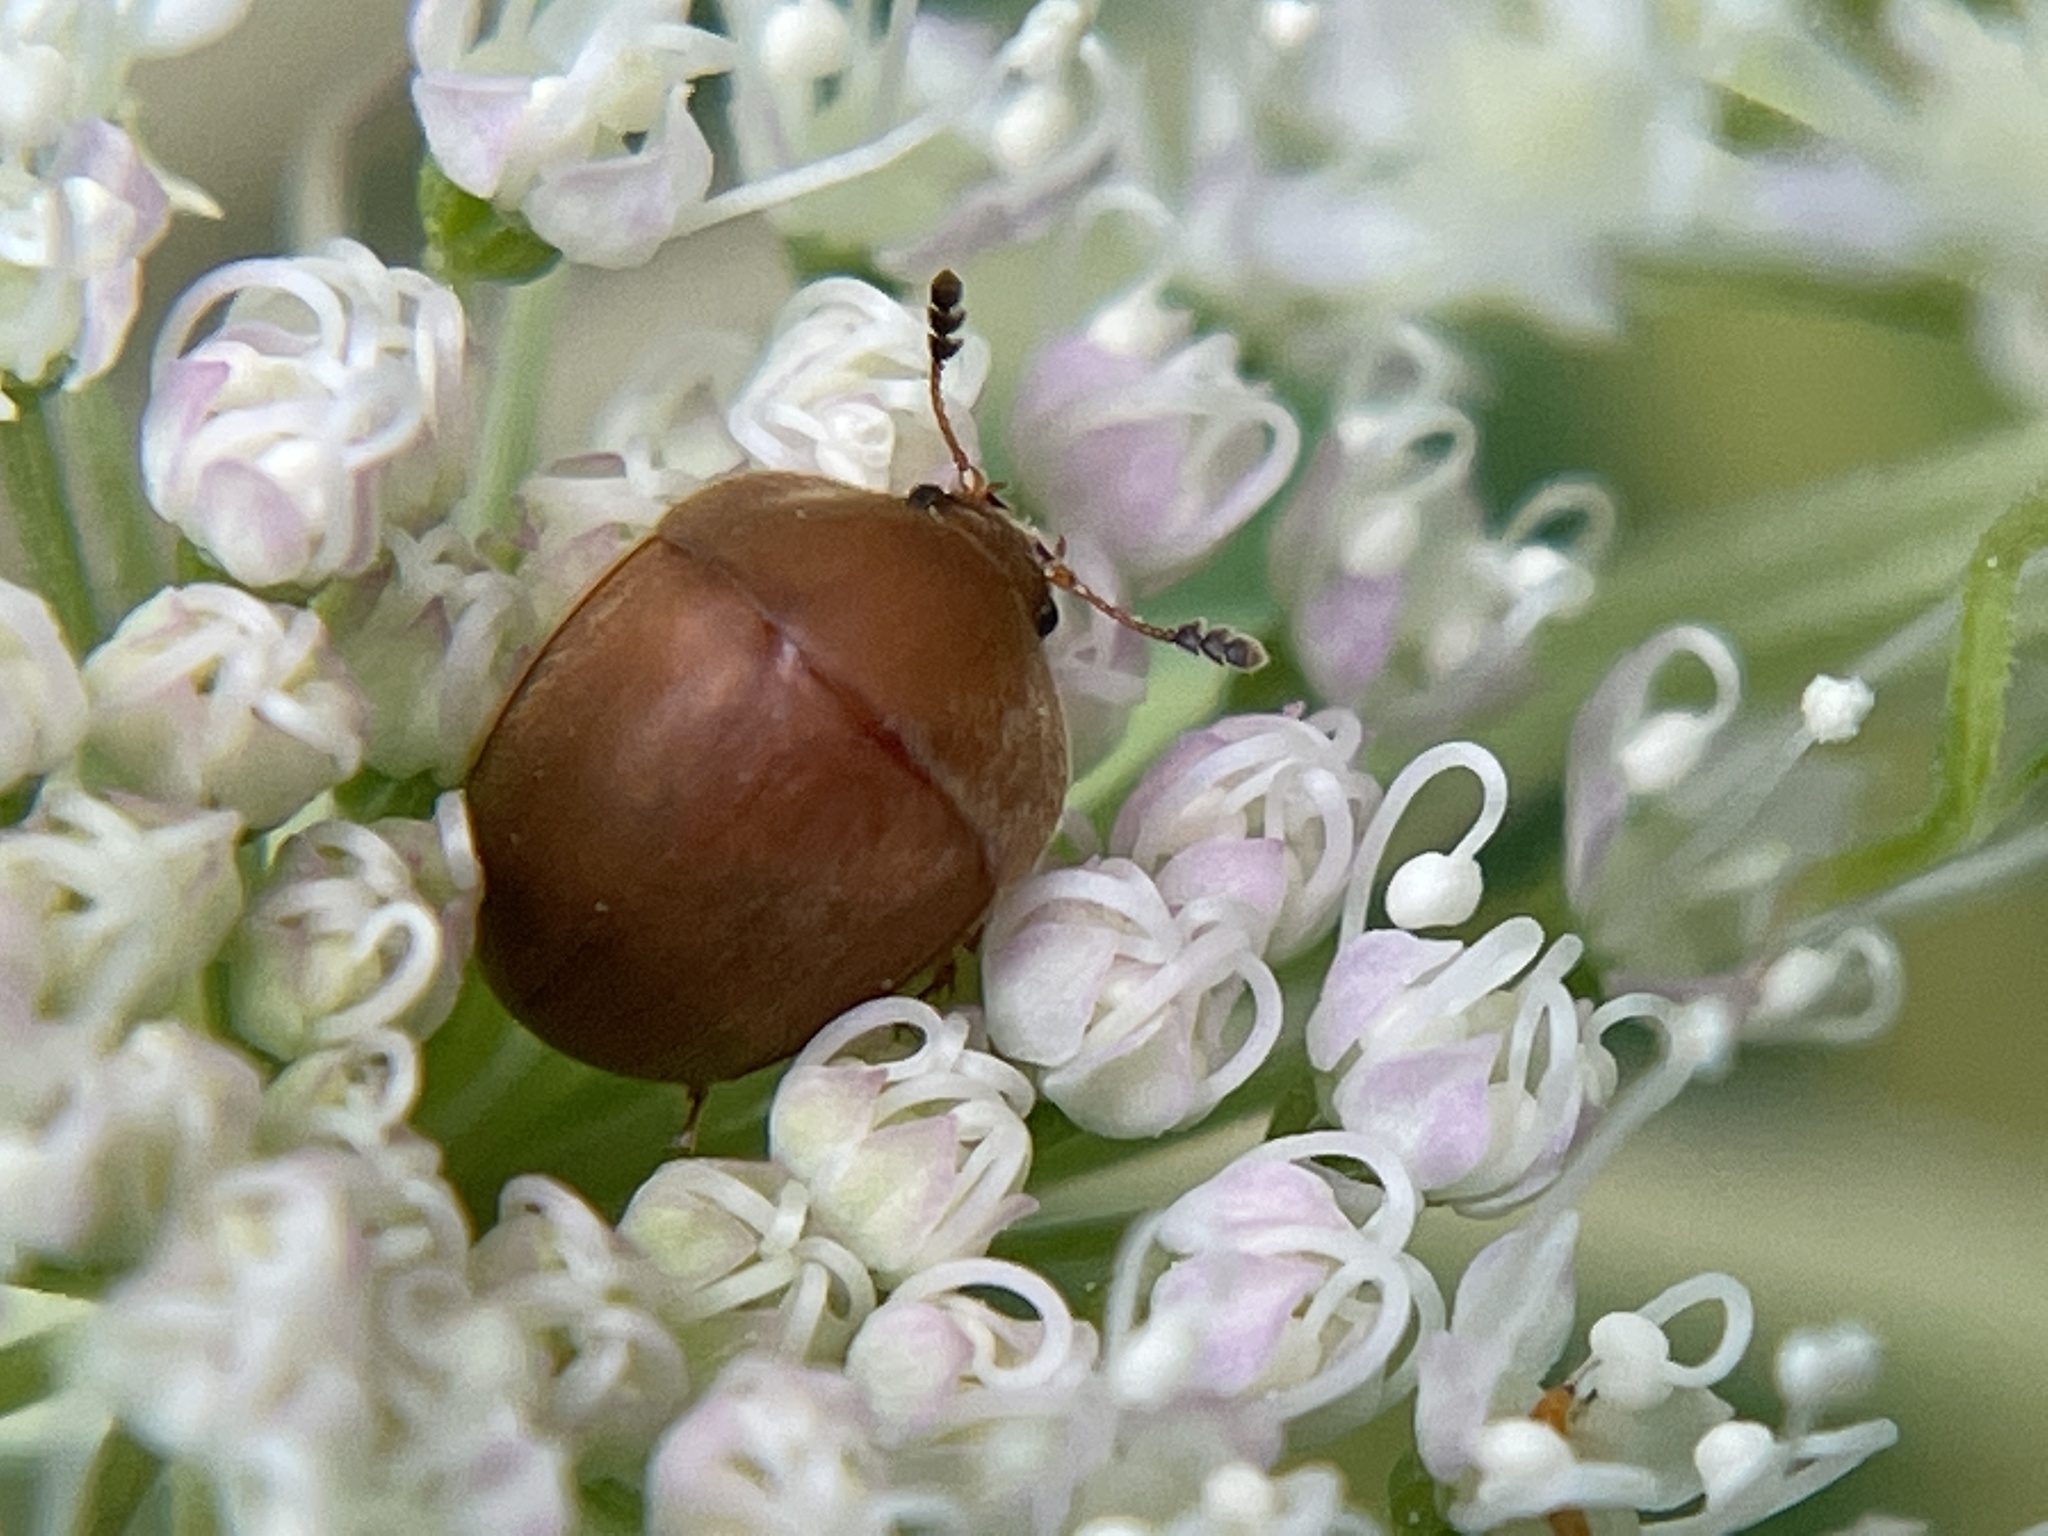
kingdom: Animalia
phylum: Arthropoda
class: Insecta
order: Coleoptera
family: Nitidulidae
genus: Cychramus
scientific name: Cychramus luteus
